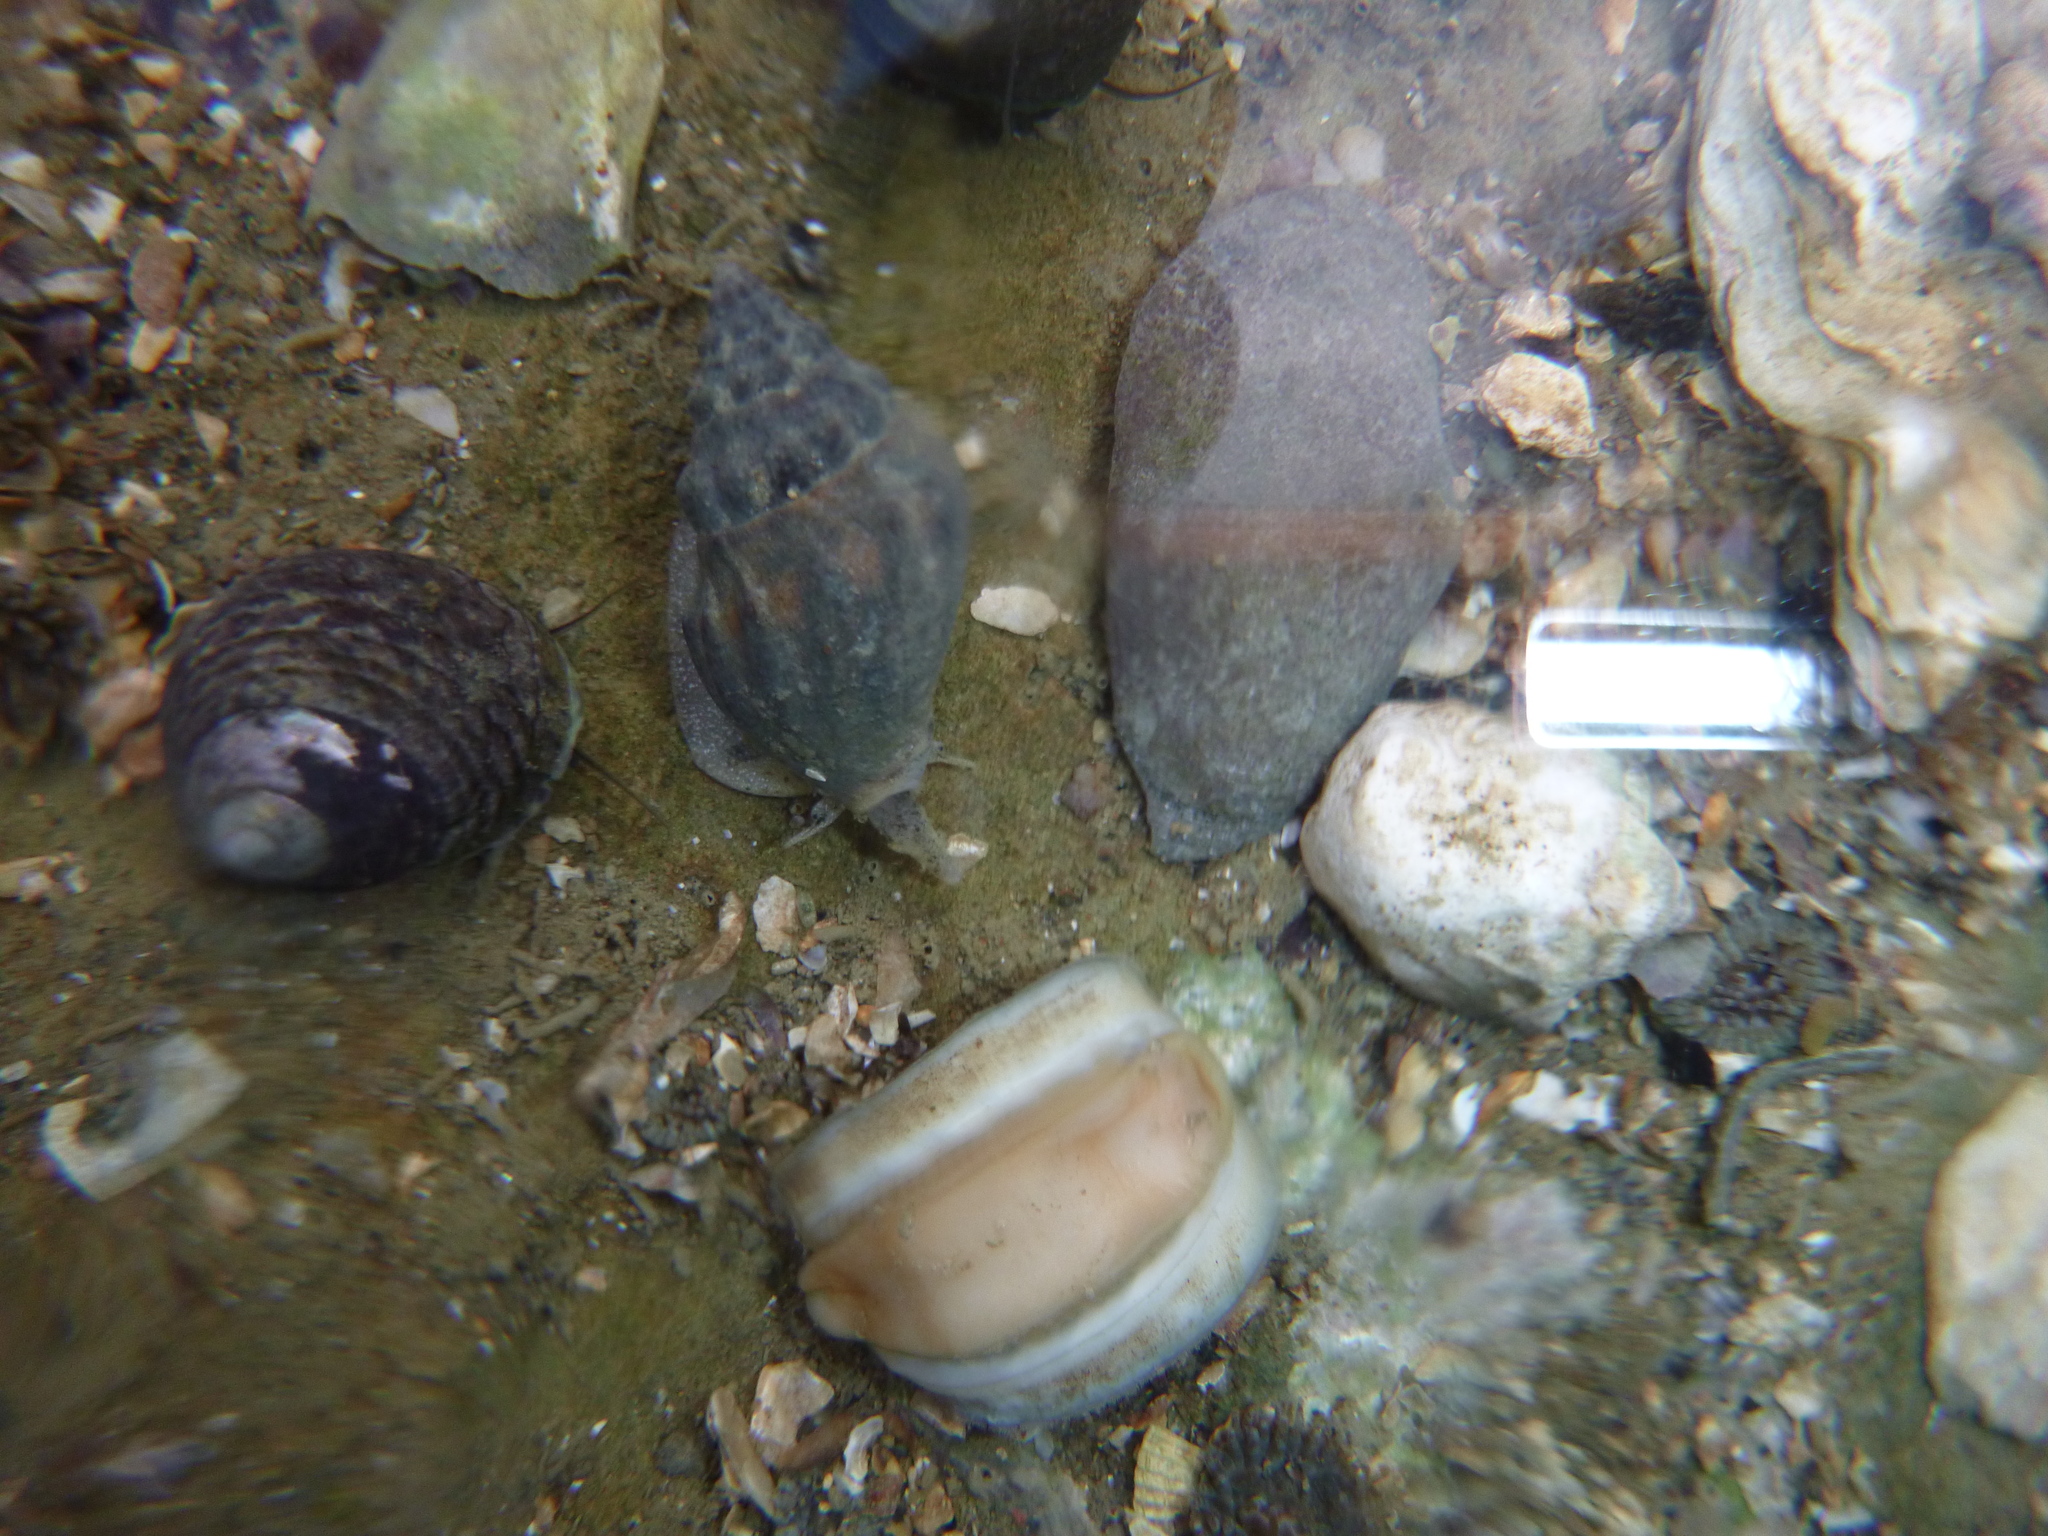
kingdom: Animalia
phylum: Mollusca
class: Gastropoda
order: Neogastropoda
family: Cominellidae
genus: Cominella
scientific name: Cominella glandiformis
